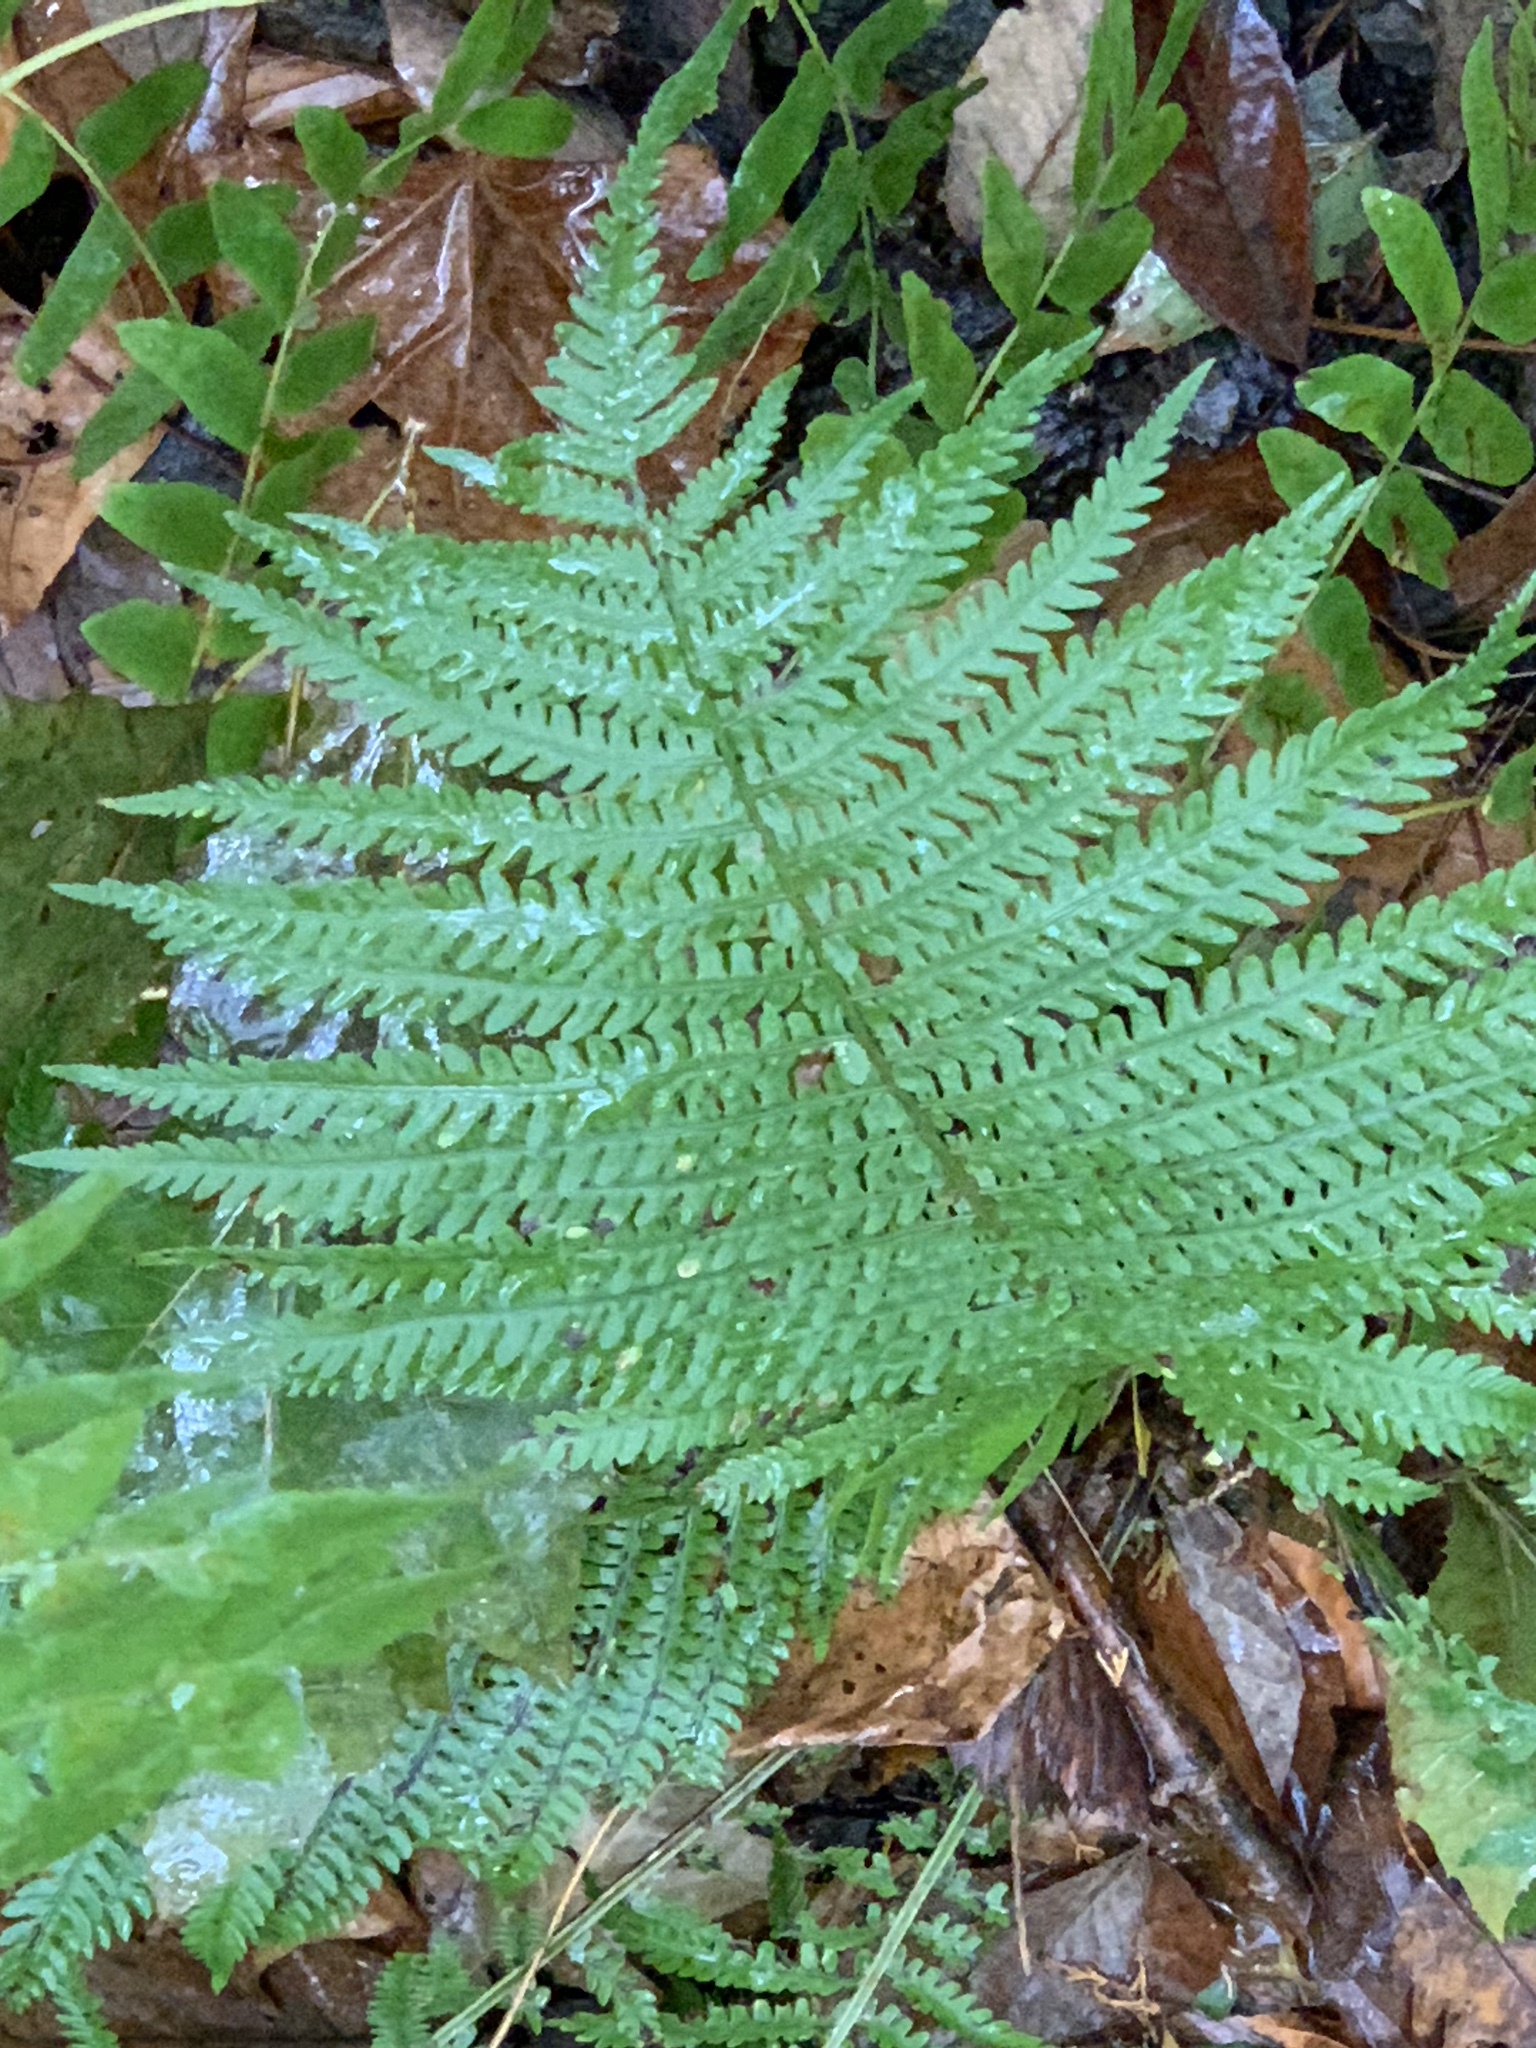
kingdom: Plantae
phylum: Tracheophyta
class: Polypodiopsida
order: Polypodiales
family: Onocleaceae
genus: Matteuccia
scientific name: Matteuccia struthiopteris
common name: Ostrich fern
